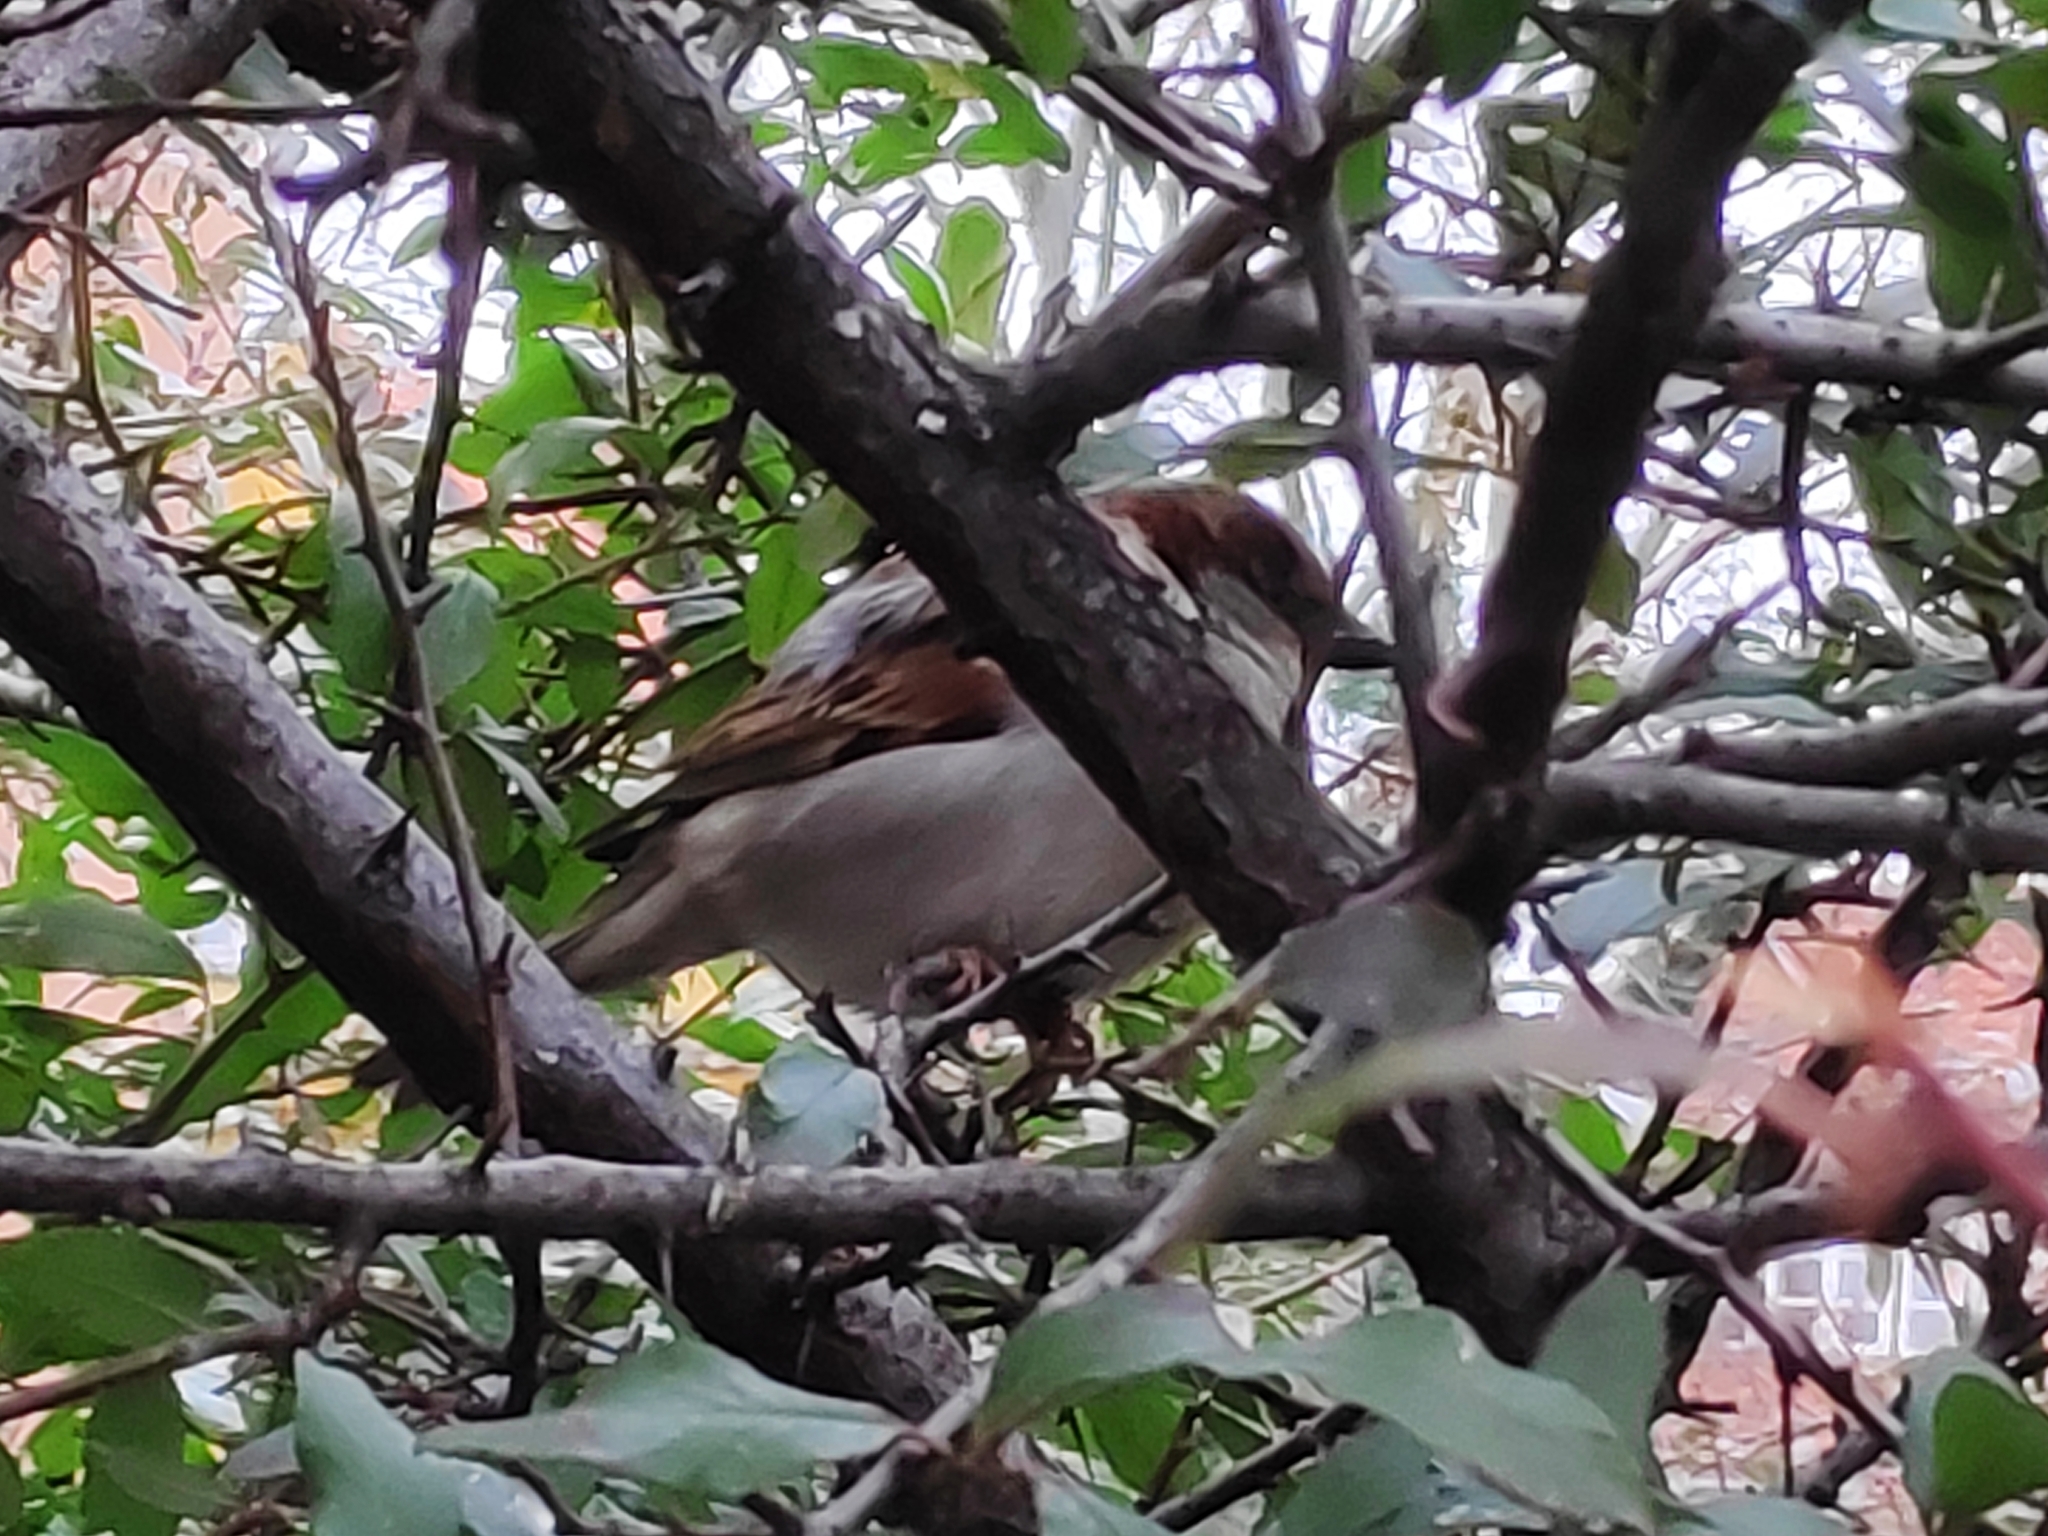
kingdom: Animalia
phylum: Chordata
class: Aves
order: Passeriformes
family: Passeridae
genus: Passer
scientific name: Passer domesticus
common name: House sparrow
